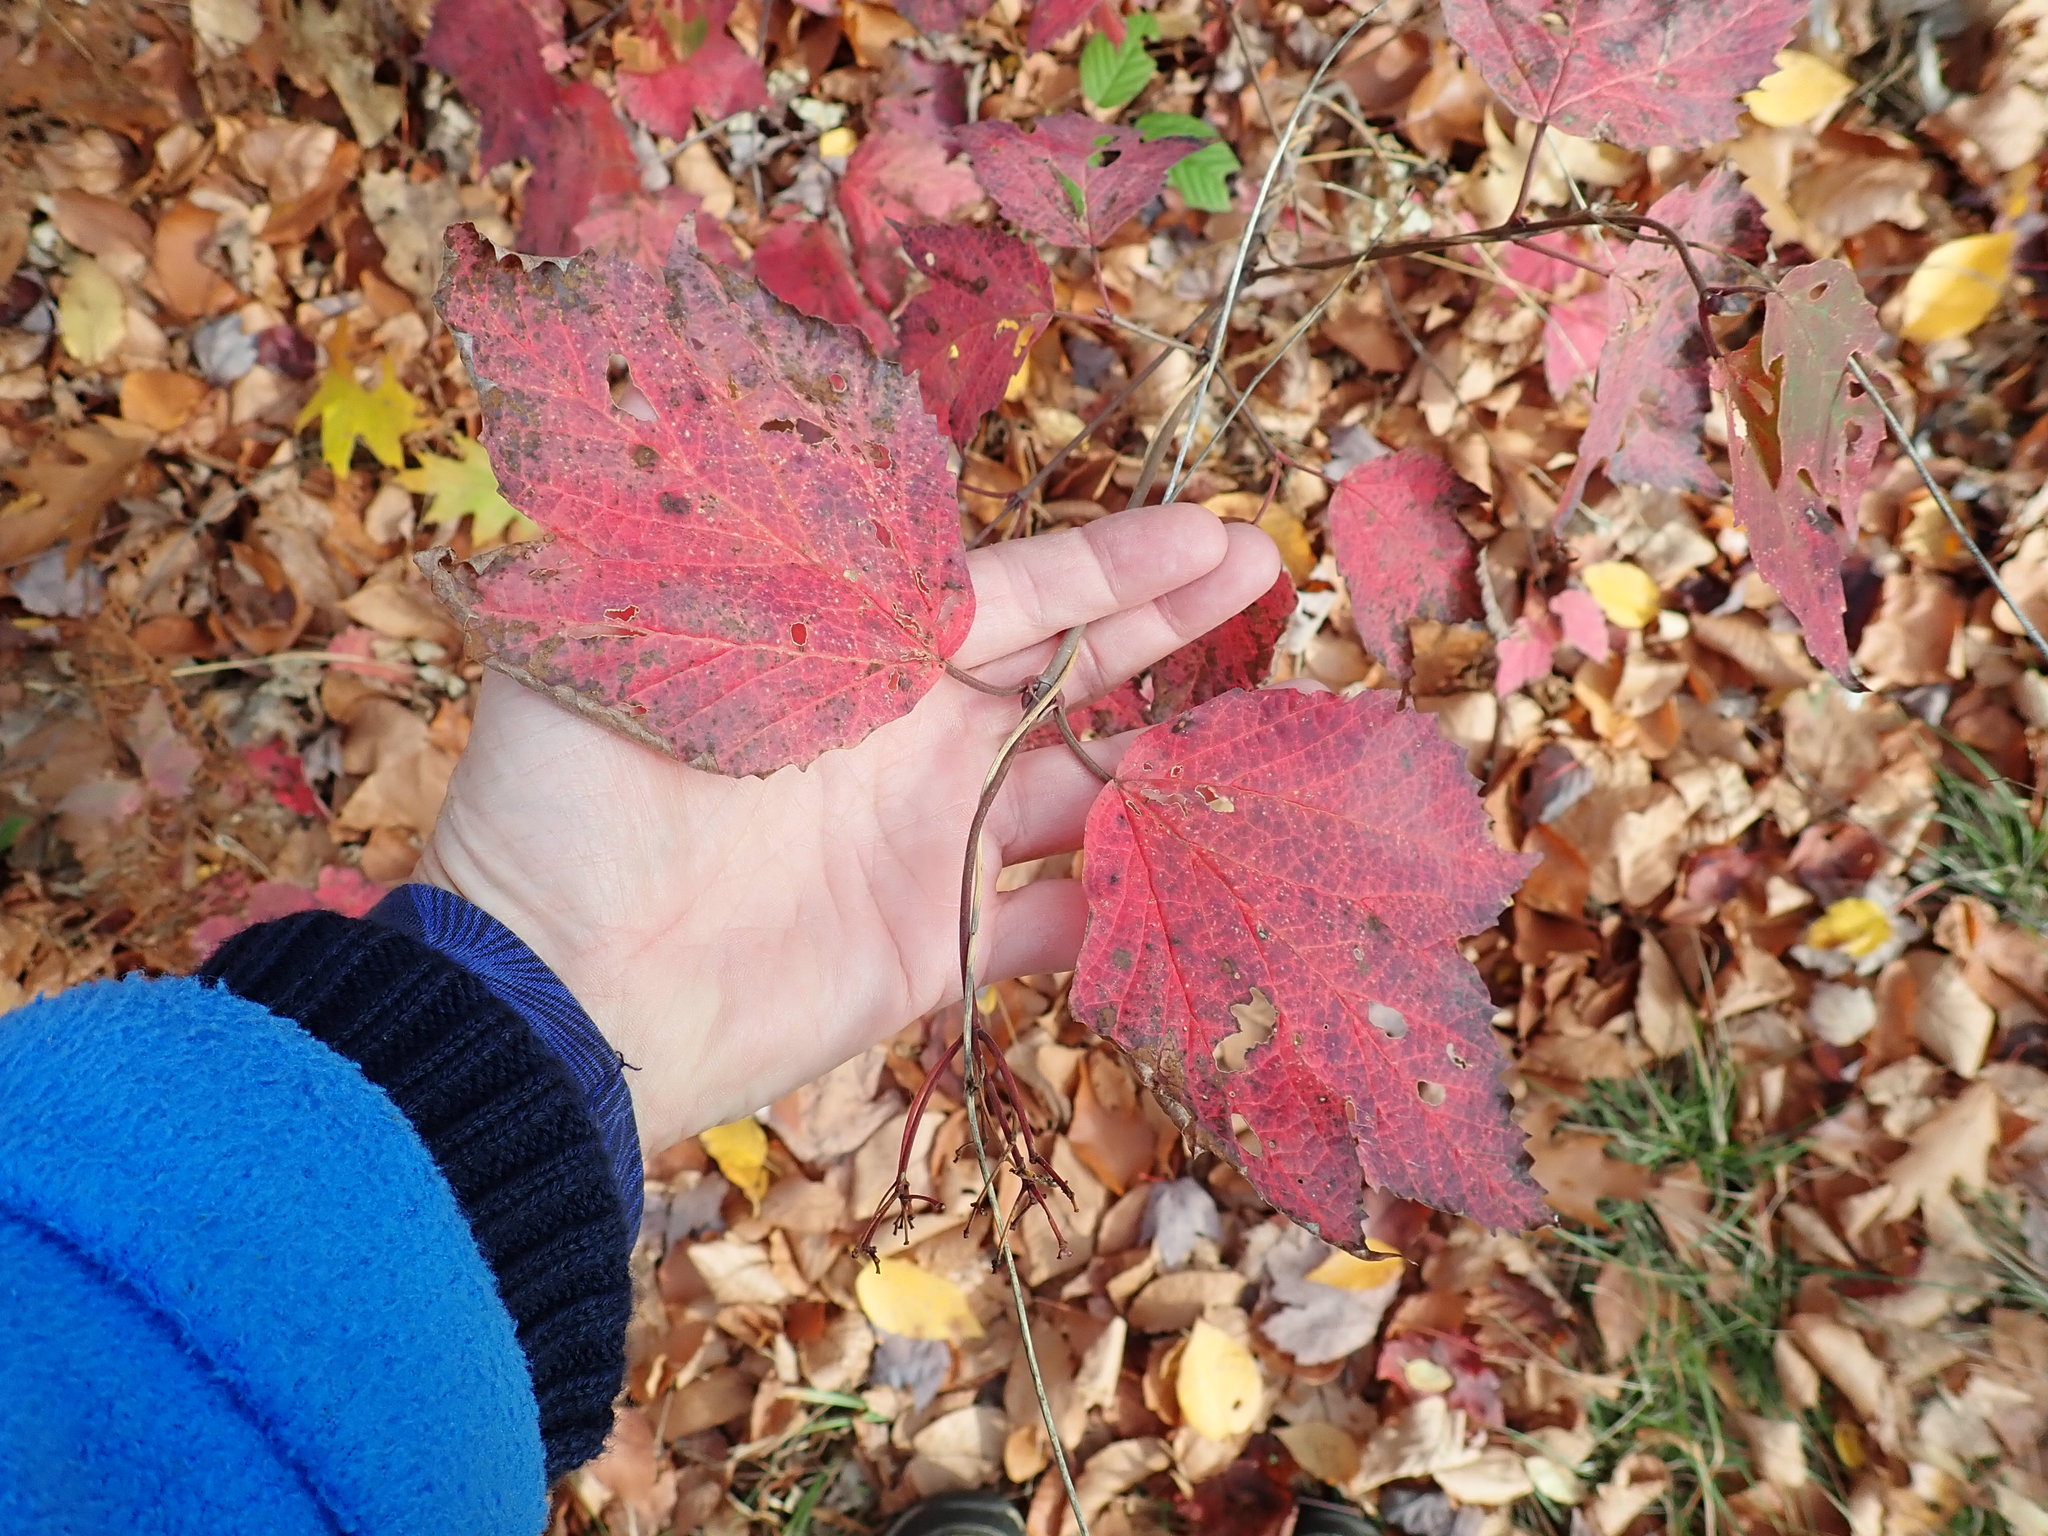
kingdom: Plantae
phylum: Tracheophyta
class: Magnoliopsida
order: Dipsacales
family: Viburnaceae
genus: Viburnum
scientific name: Viburnum acerifolium
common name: Dockmackie
